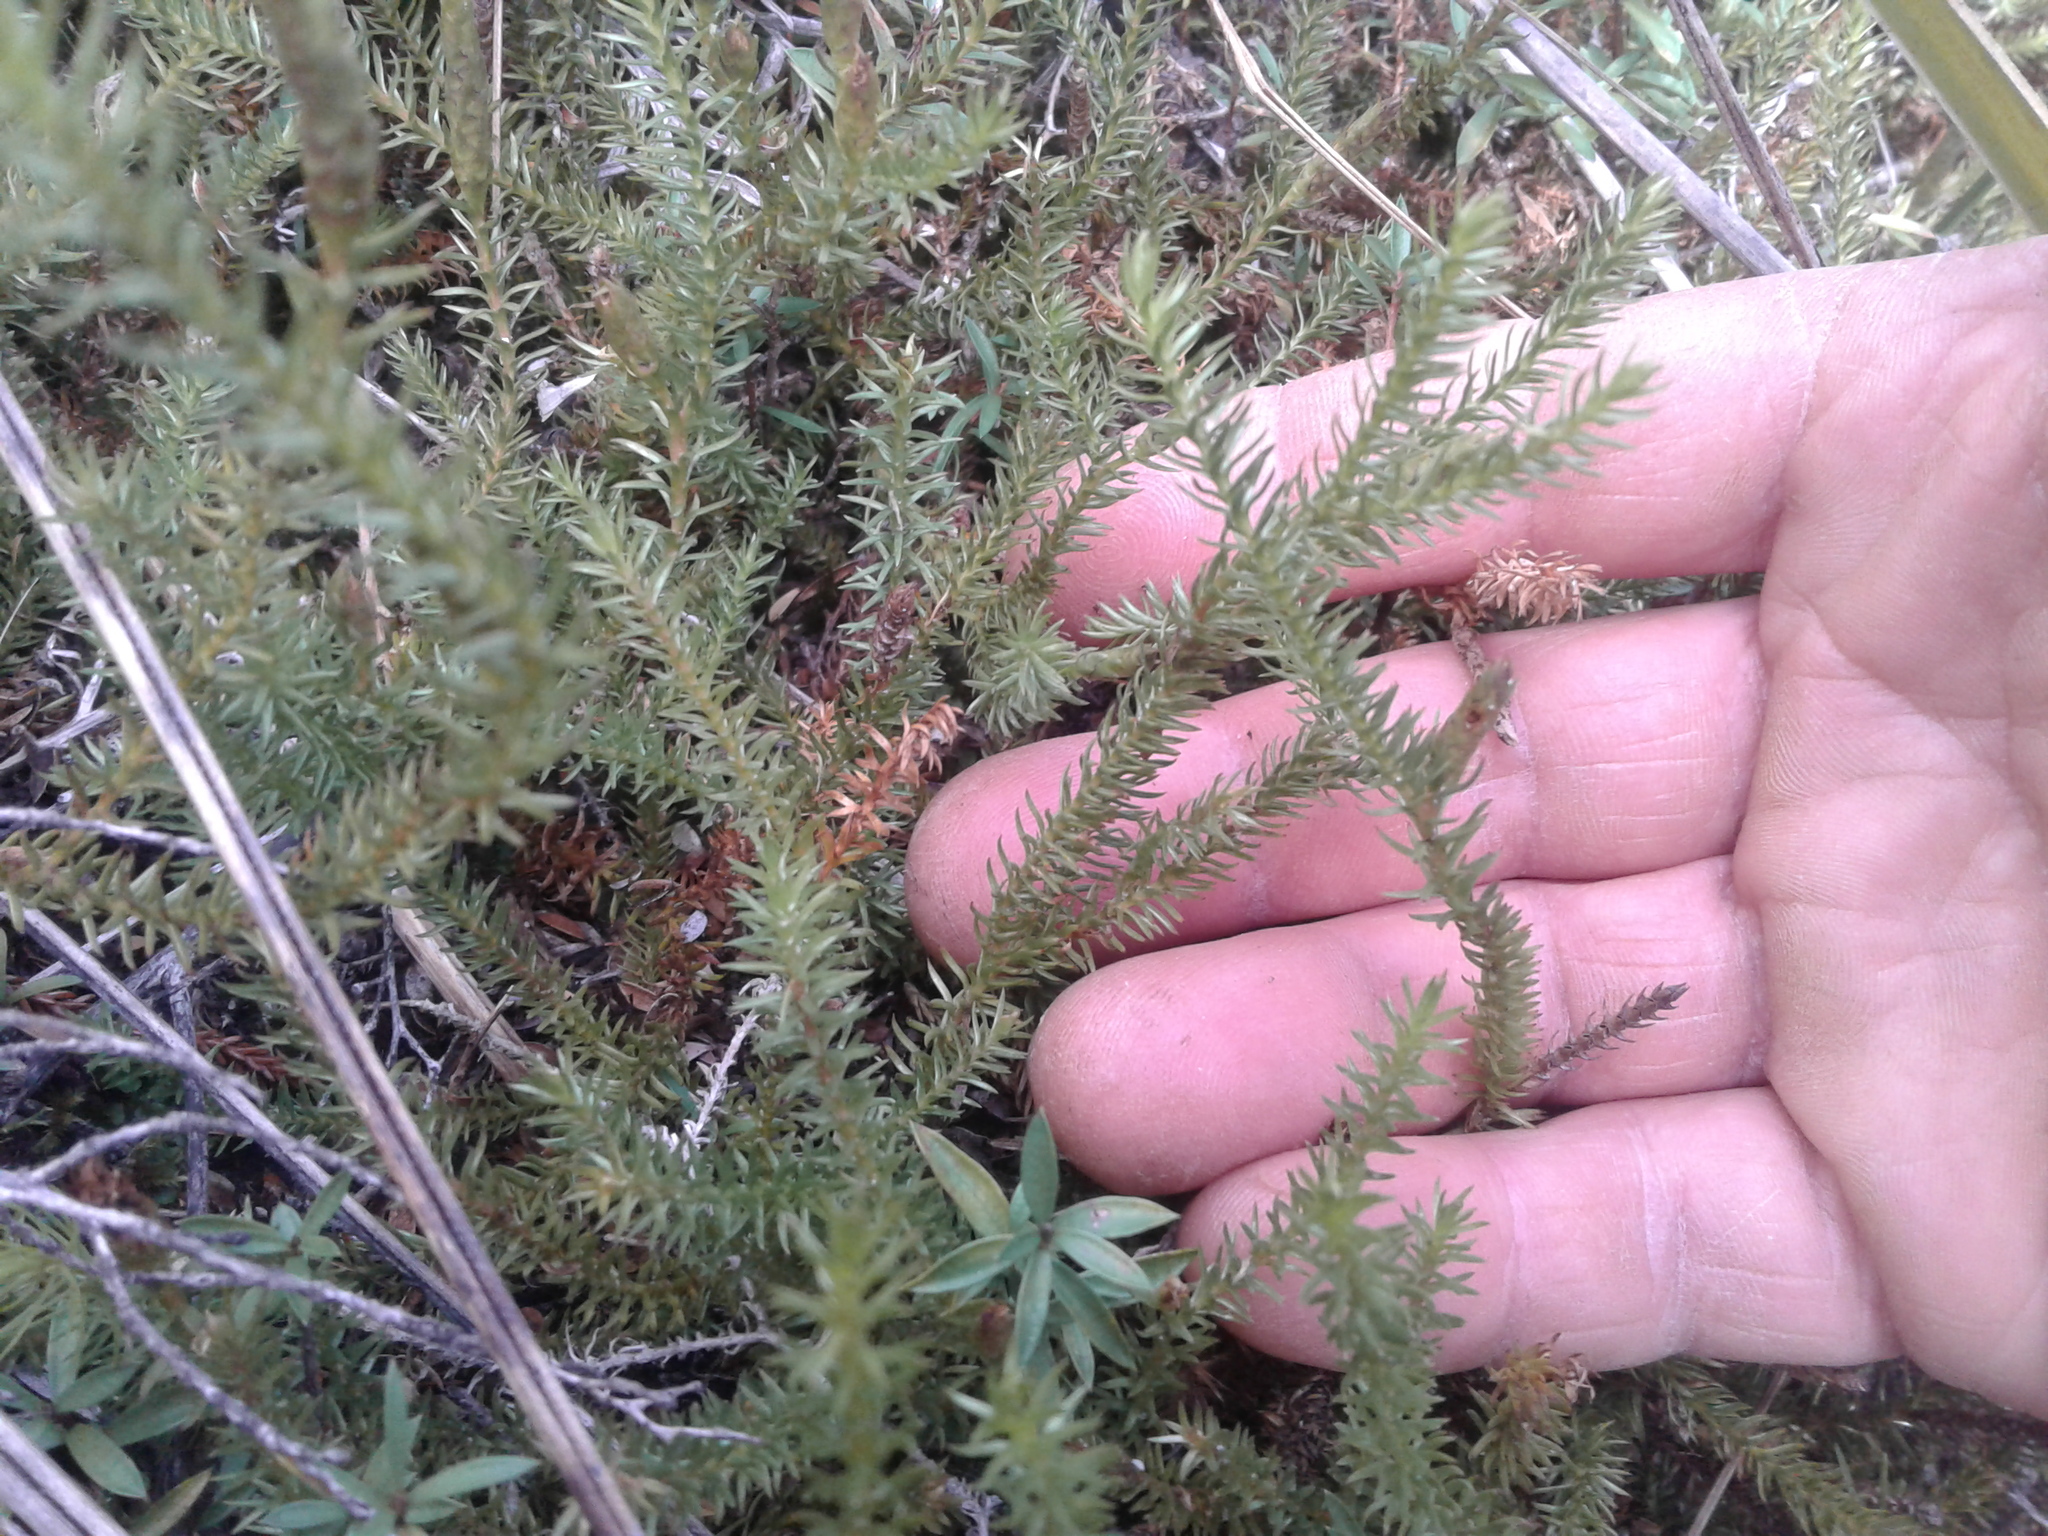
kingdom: Plantae
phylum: Tracheophyta
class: Lycopodiopsida
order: Lycopodiales
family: Lycopodiaceae
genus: Lateristachys
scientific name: Lateristachys lateralis
